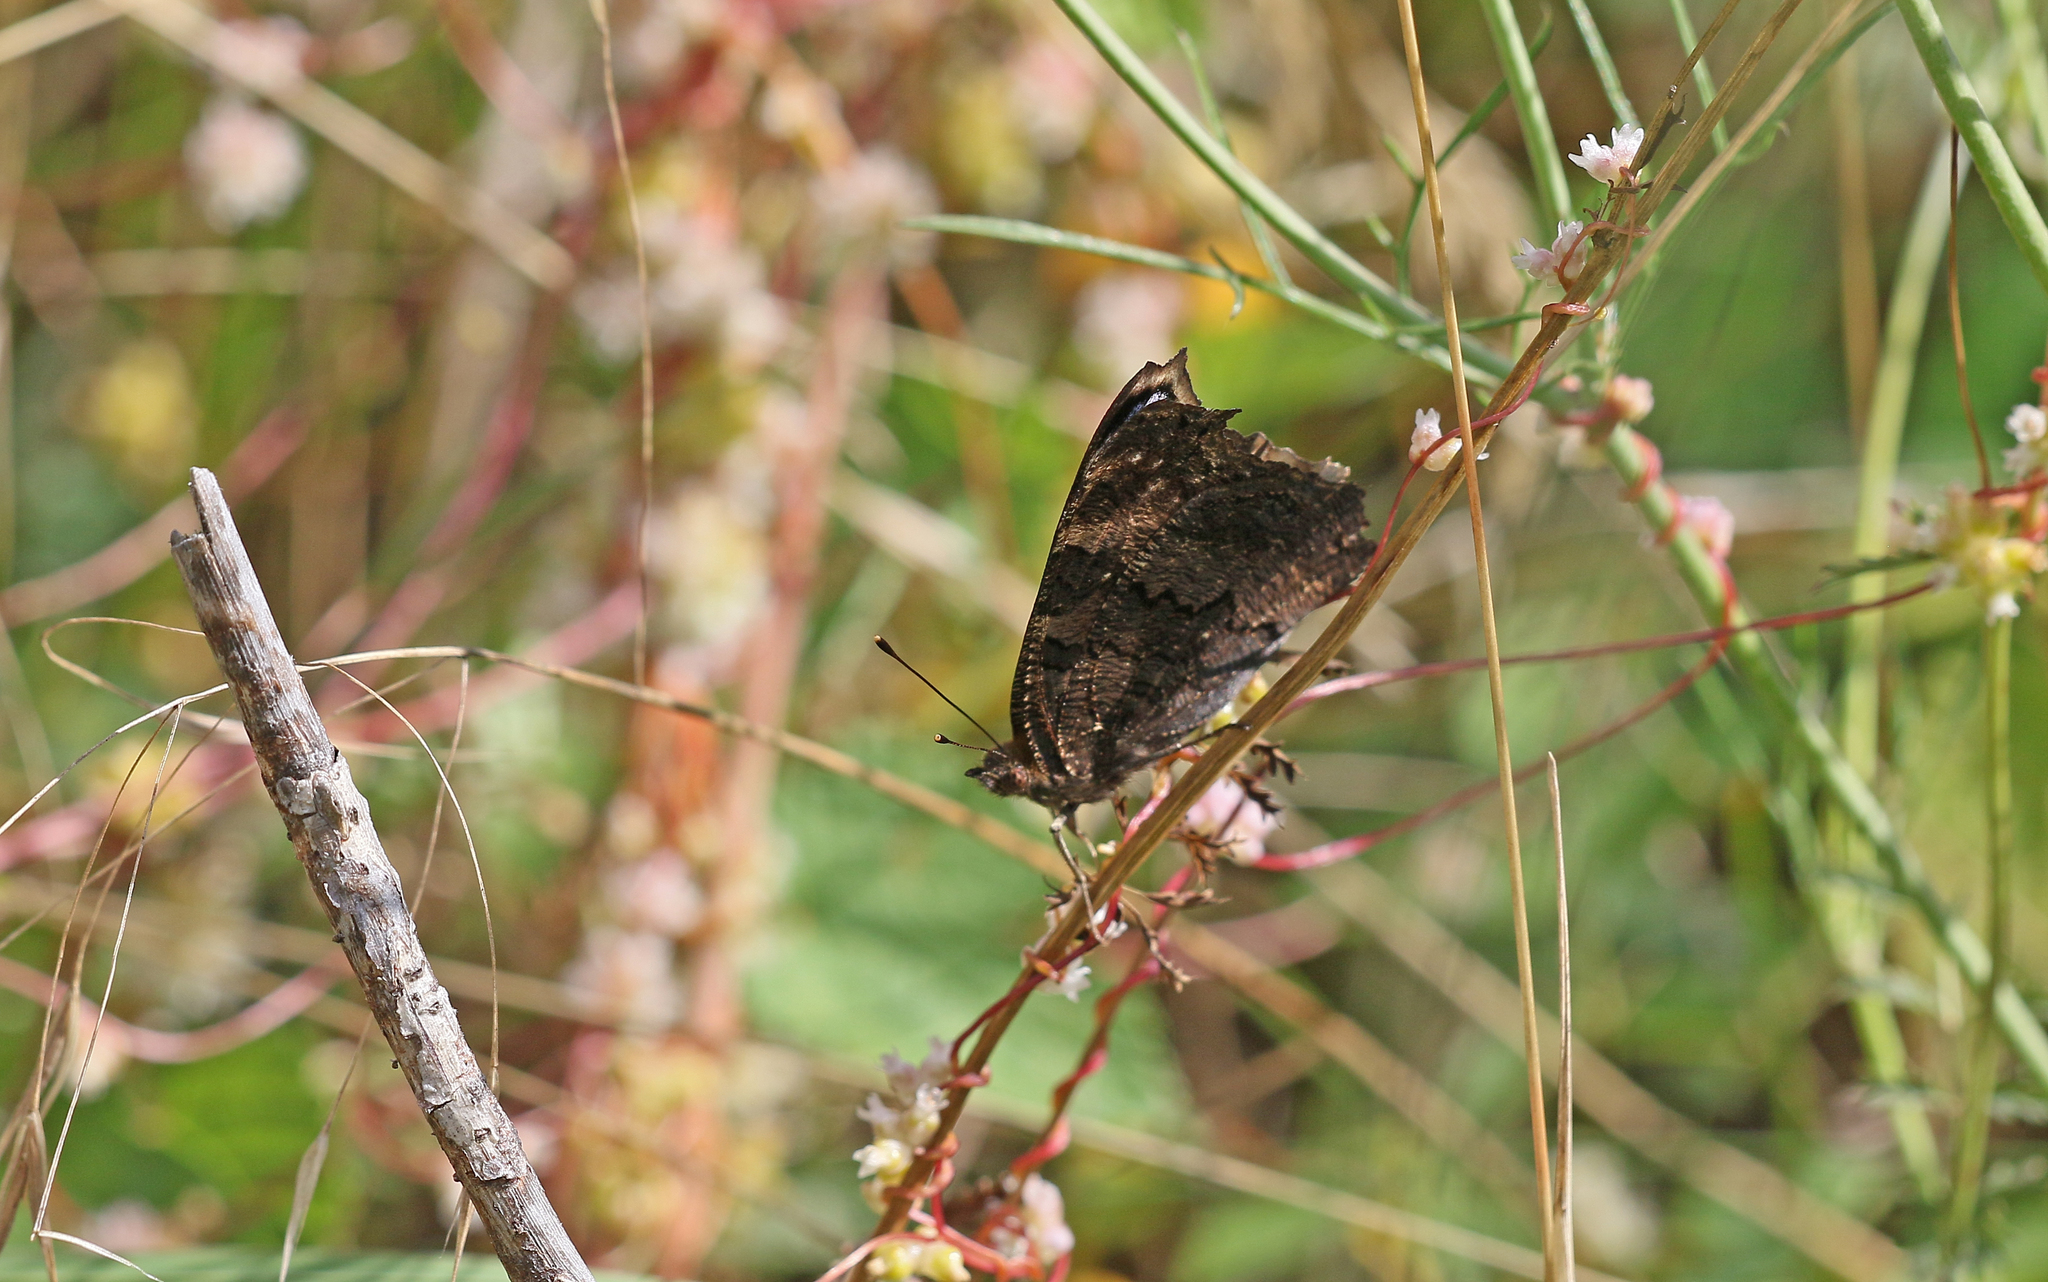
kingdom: Animalia
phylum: Arthropoda
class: Insecta
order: Lepidoptera
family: Nymphalidae
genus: Aglais
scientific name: Aglais io
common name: Peacock
